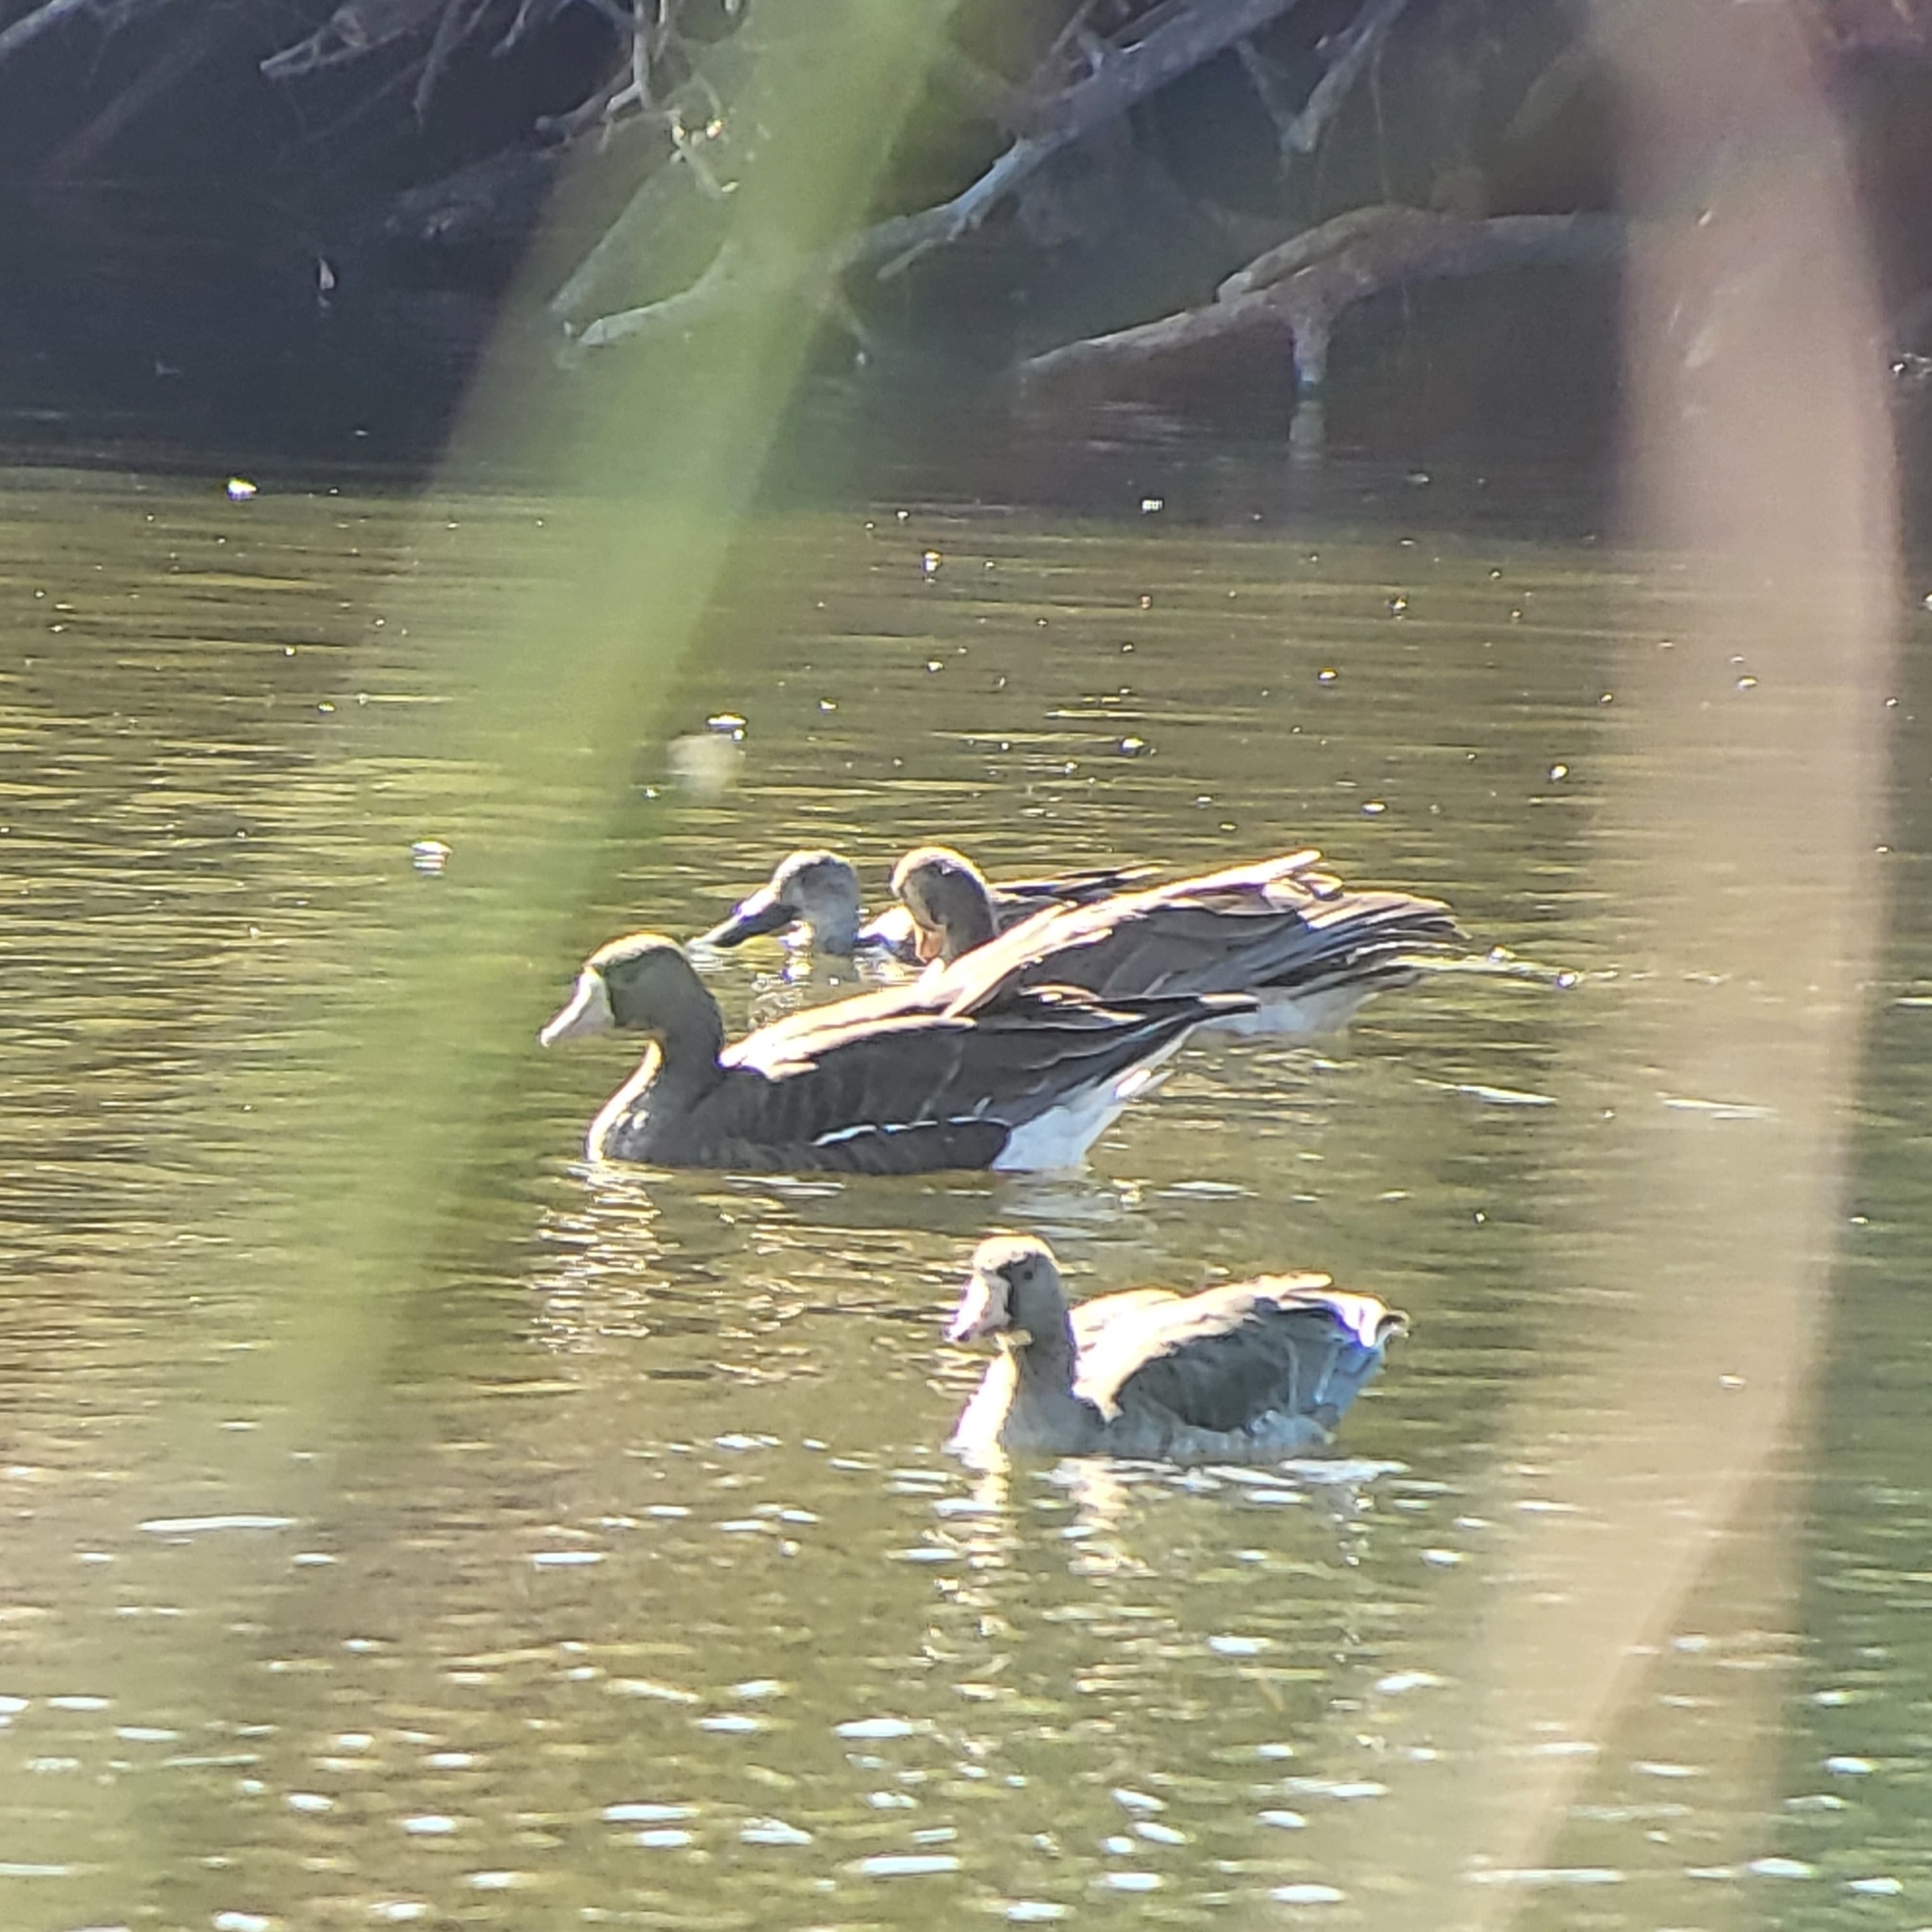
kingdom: Animalia
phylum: Chordata
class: Aves
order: Anseriformes
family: Anatidae
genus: Anser
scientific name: Anser albifrons
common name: Greater white-fronted goose
